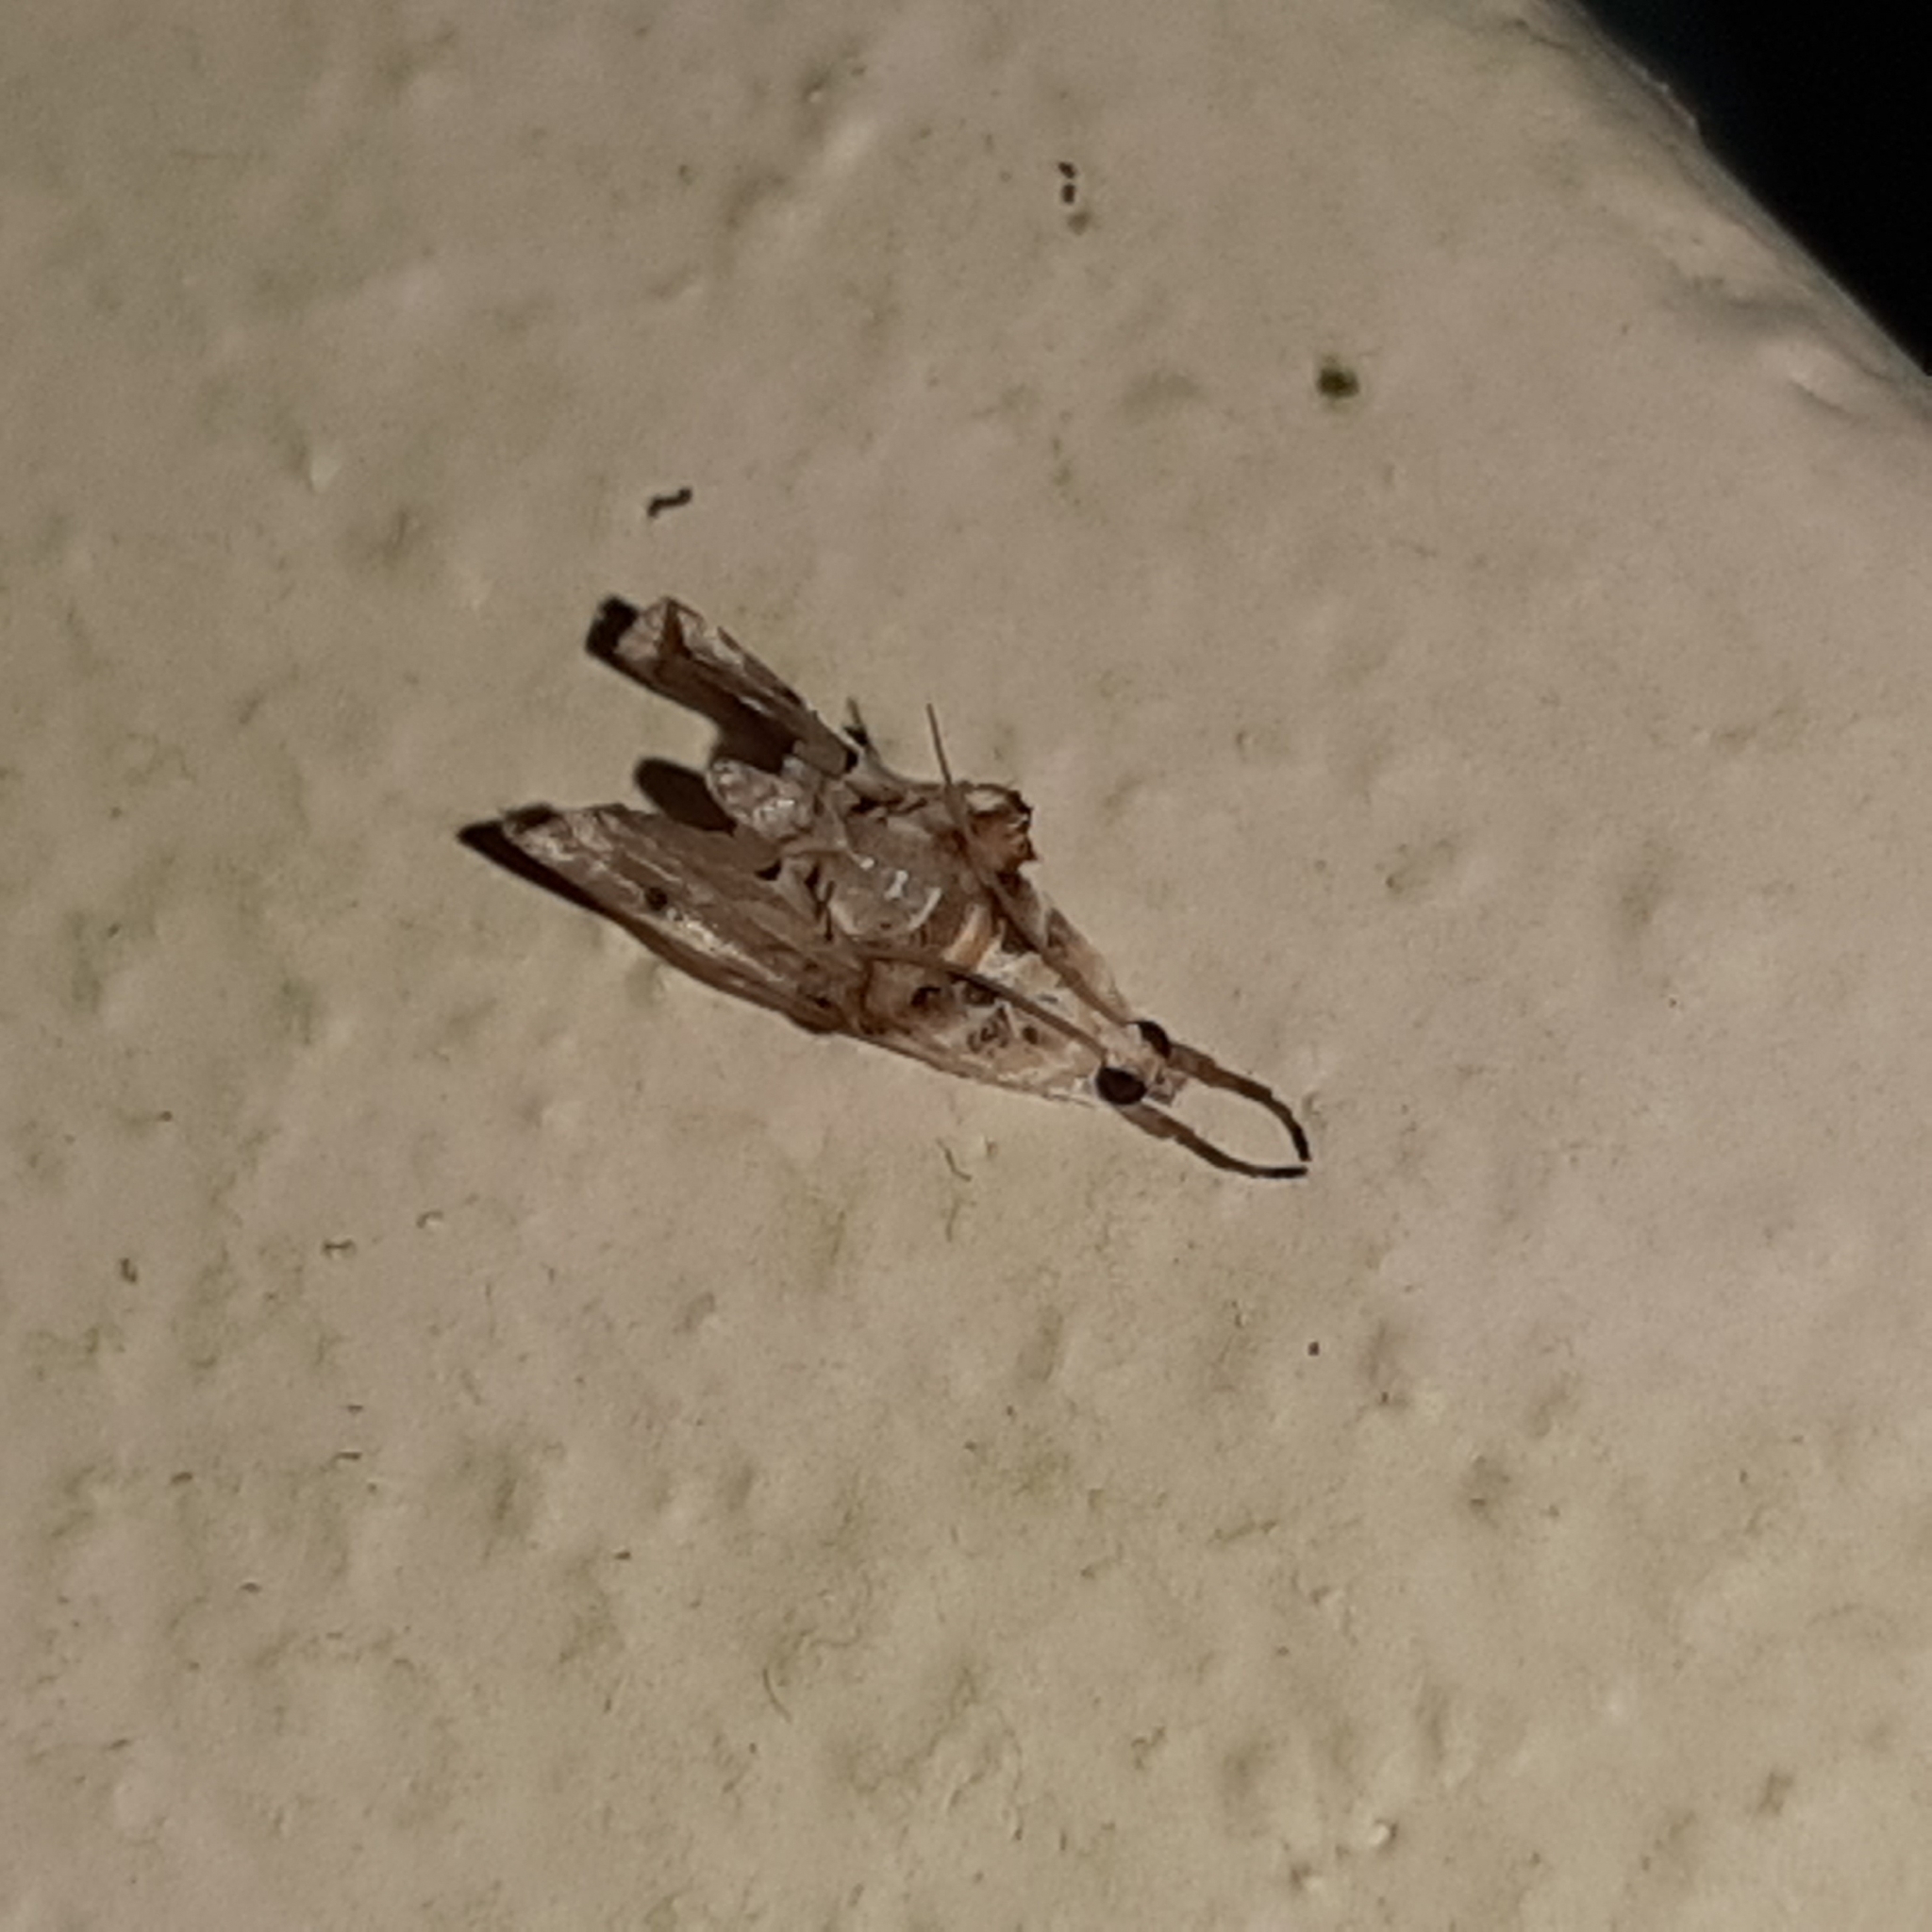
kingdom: Animalia
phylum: Arthropoda
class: Insecta
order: Lepidoptera
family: Crambidae
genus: Lipocosma
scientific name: Lipocosma nigripictalis
